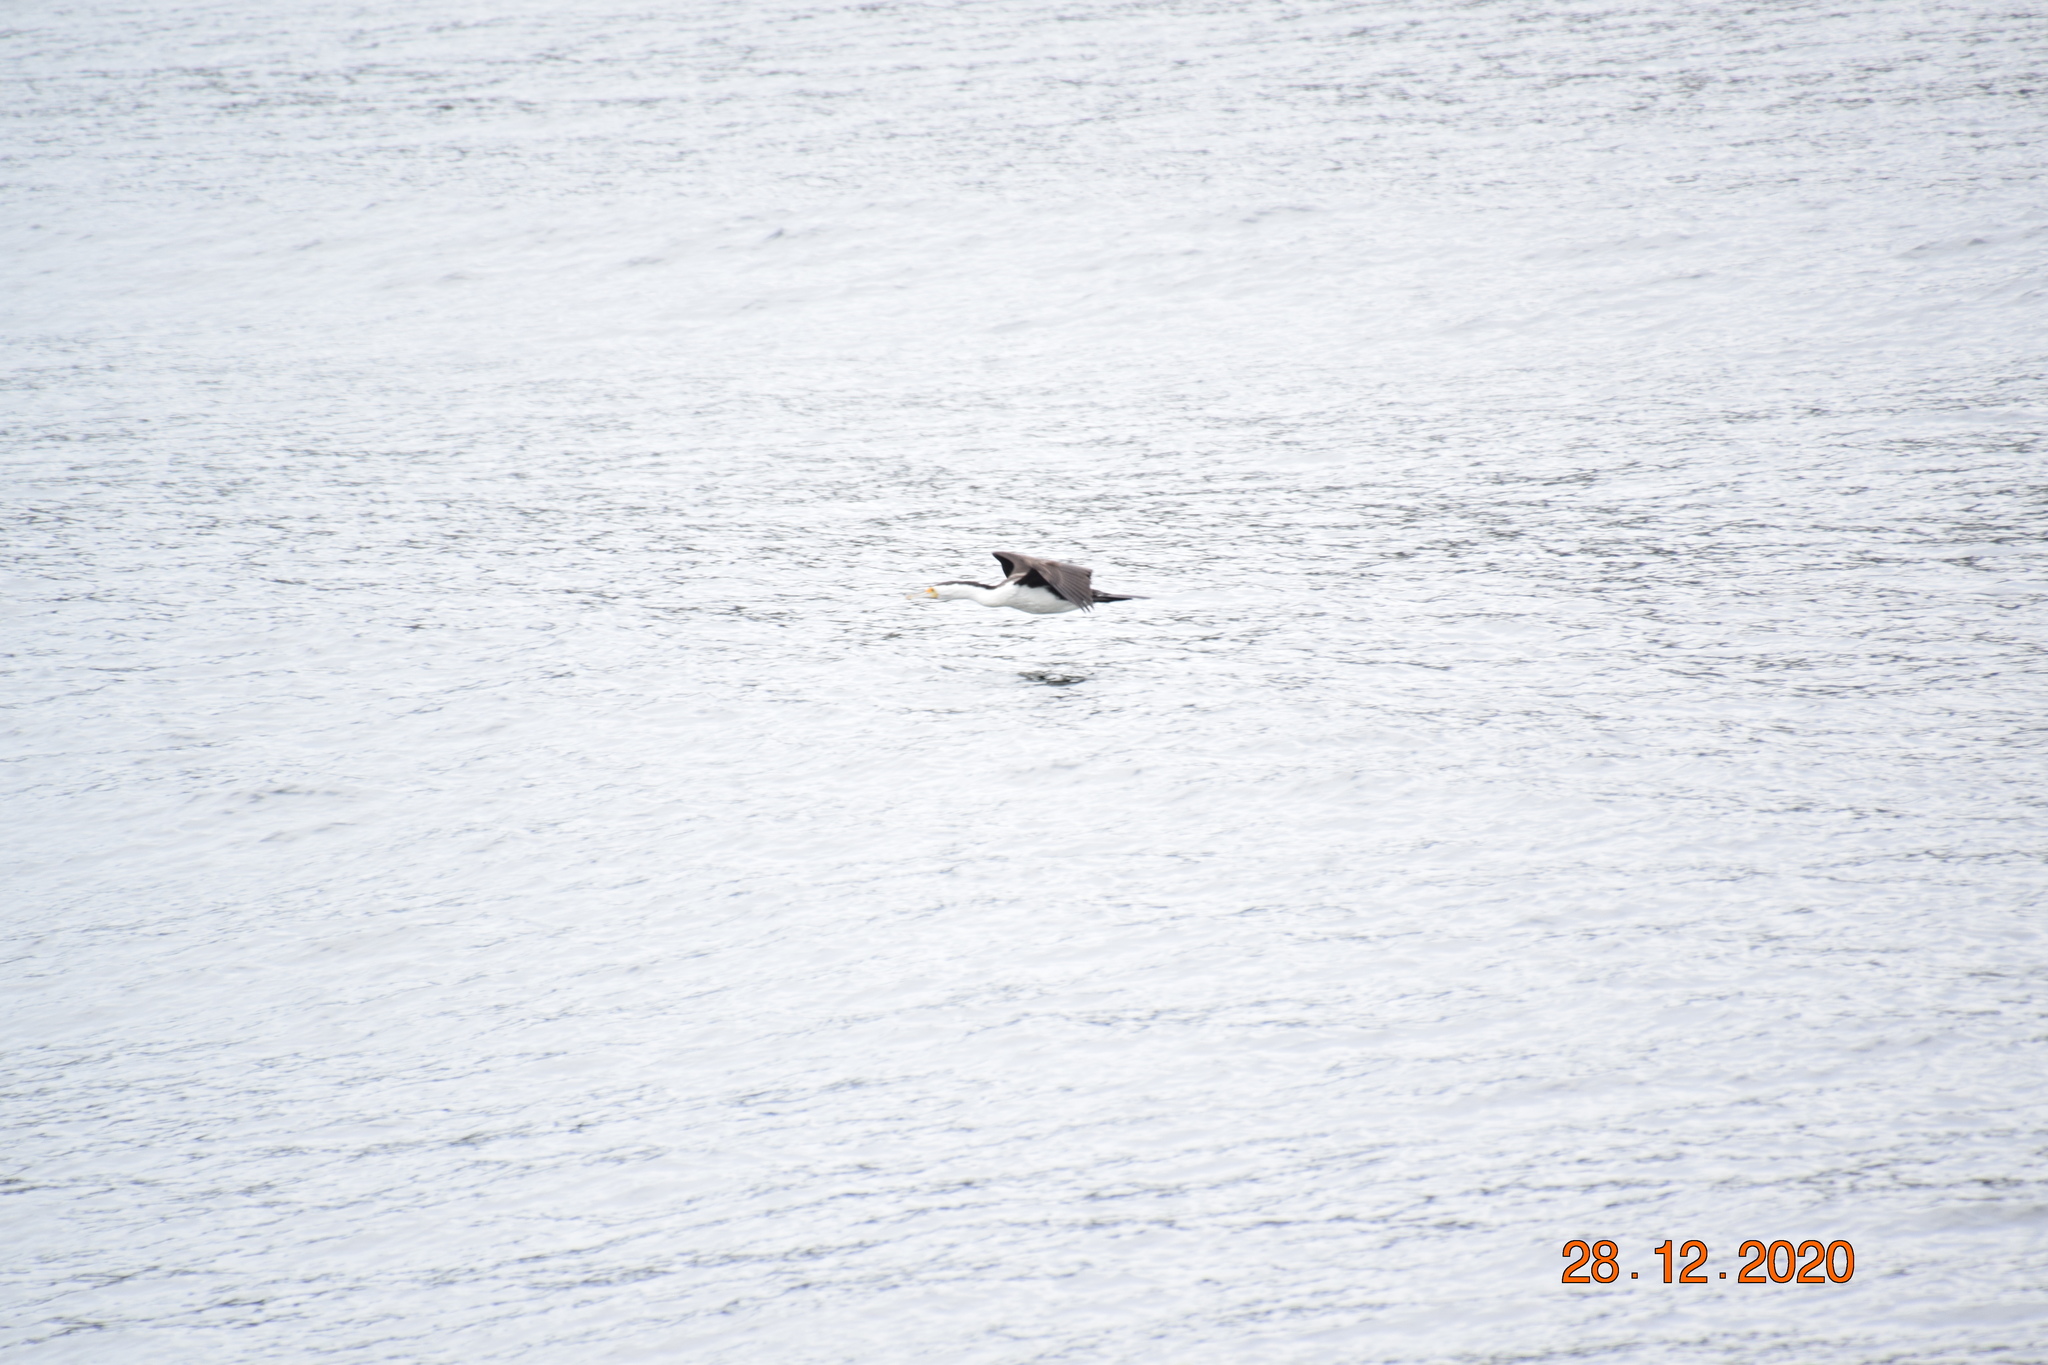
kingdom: Animalia
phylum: Chordata
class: Aves
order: Suliformes
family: Phalacrocoracidae
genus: Phalacrocorax
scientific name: Phalacrocorax varius
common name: Pied cormorant
